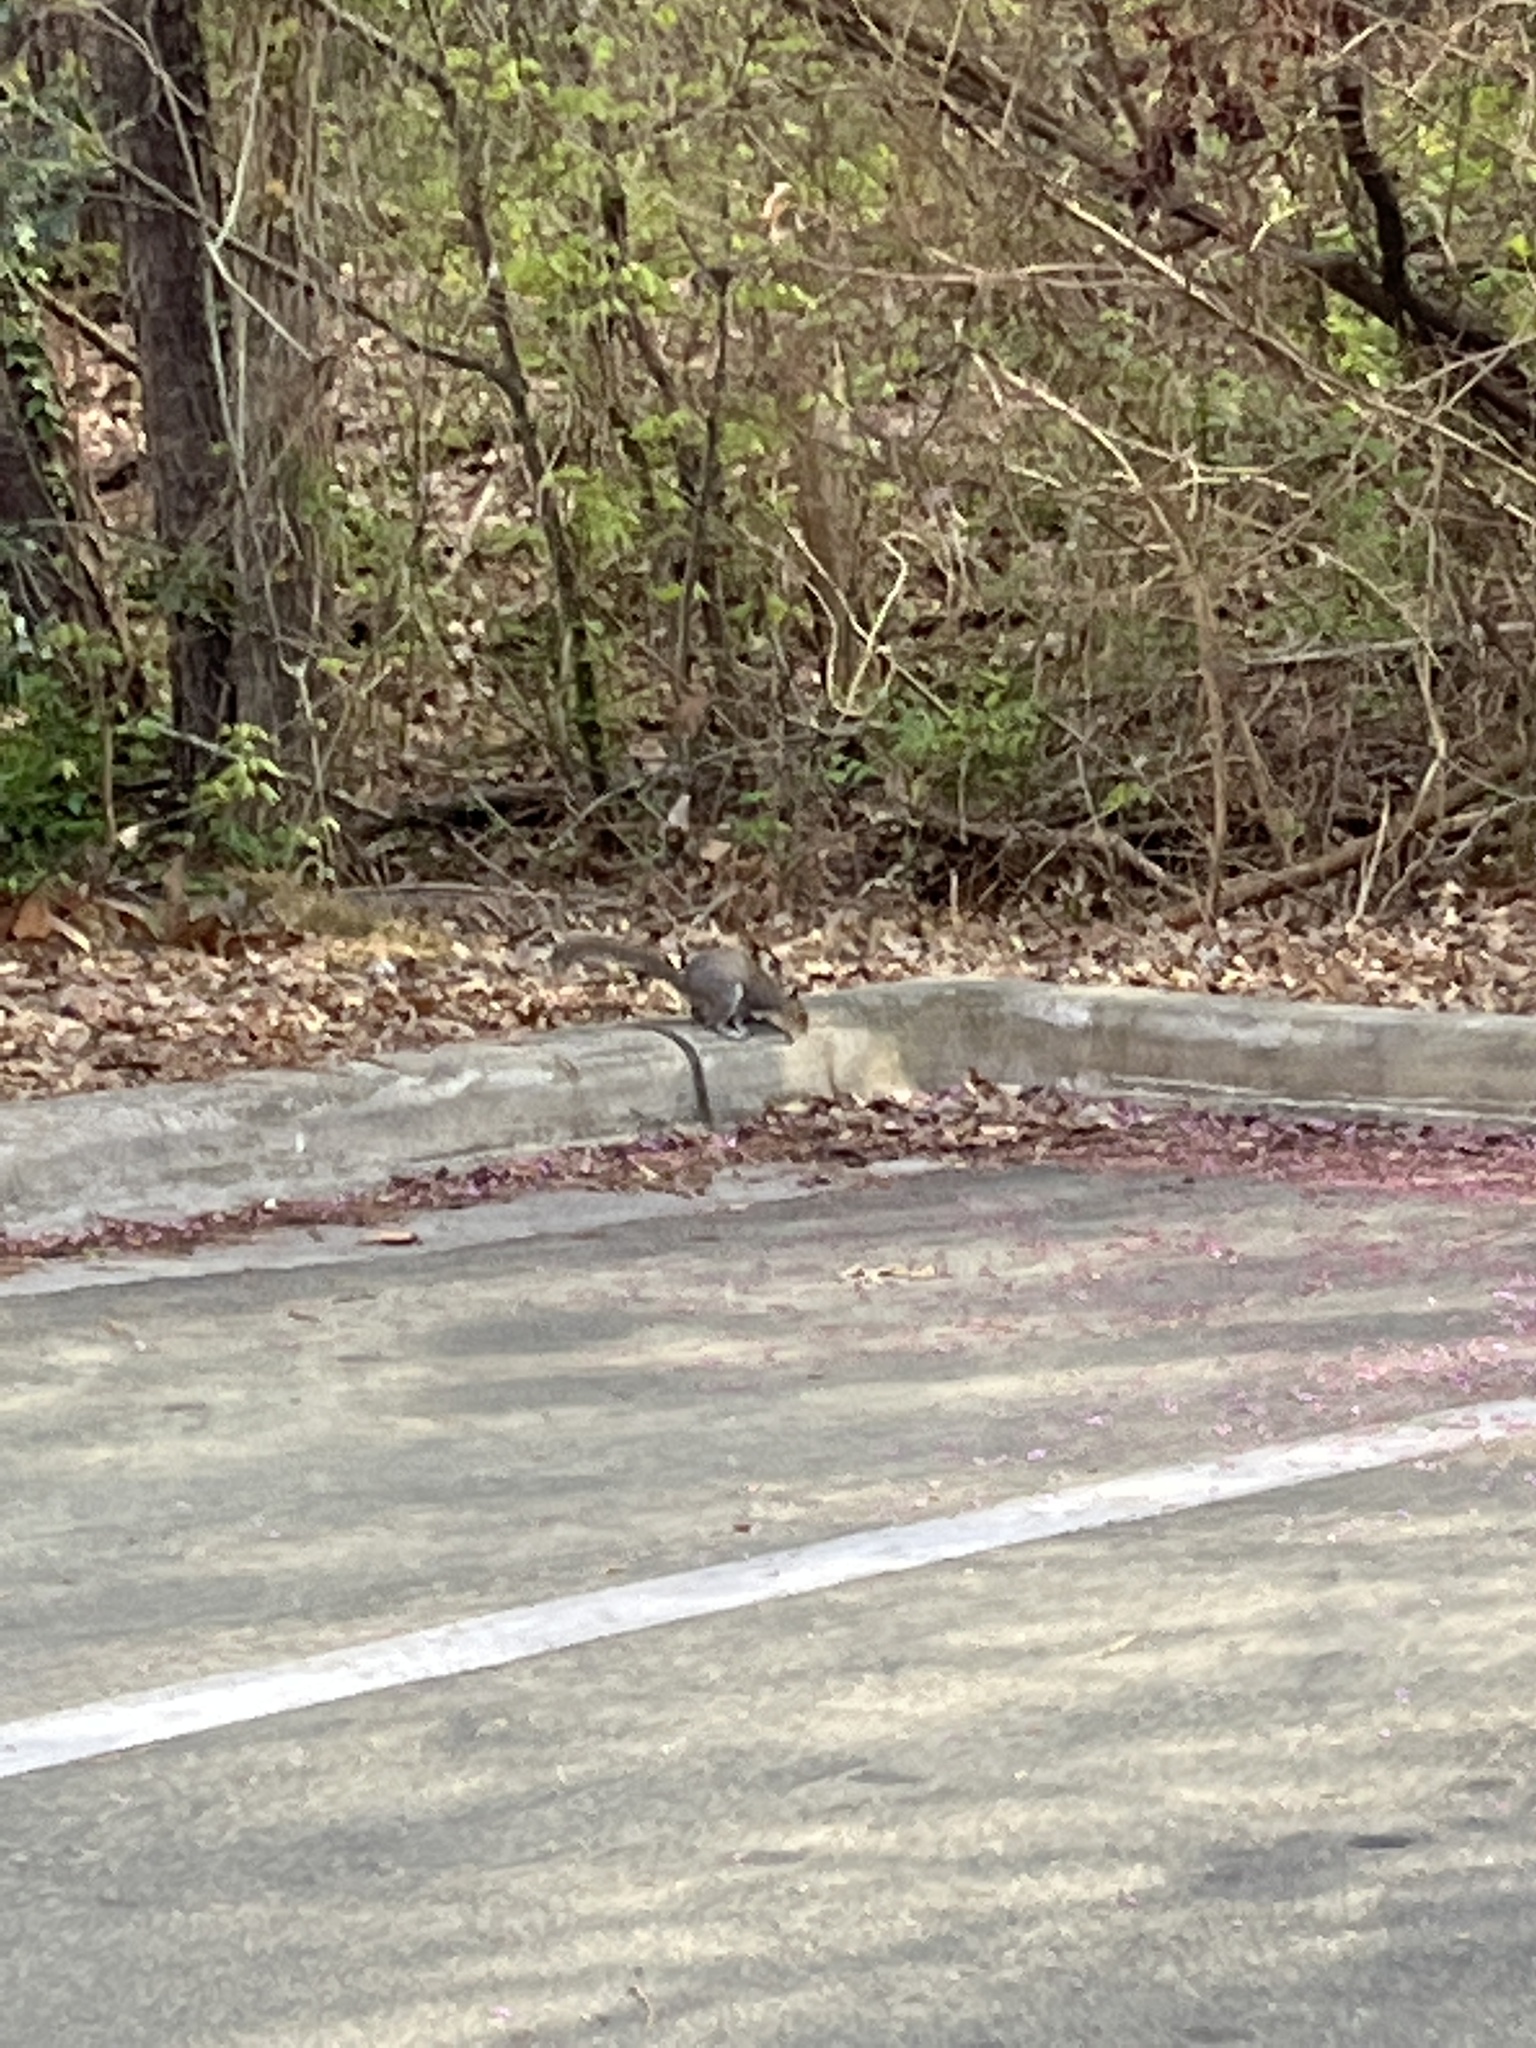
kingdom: Animalia
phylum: Chordata
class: Mammalia
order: Rodentia
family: Sciuridae
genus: Sciurus
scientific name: Sciurus carolinensis
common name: Eastern gray squirrel
